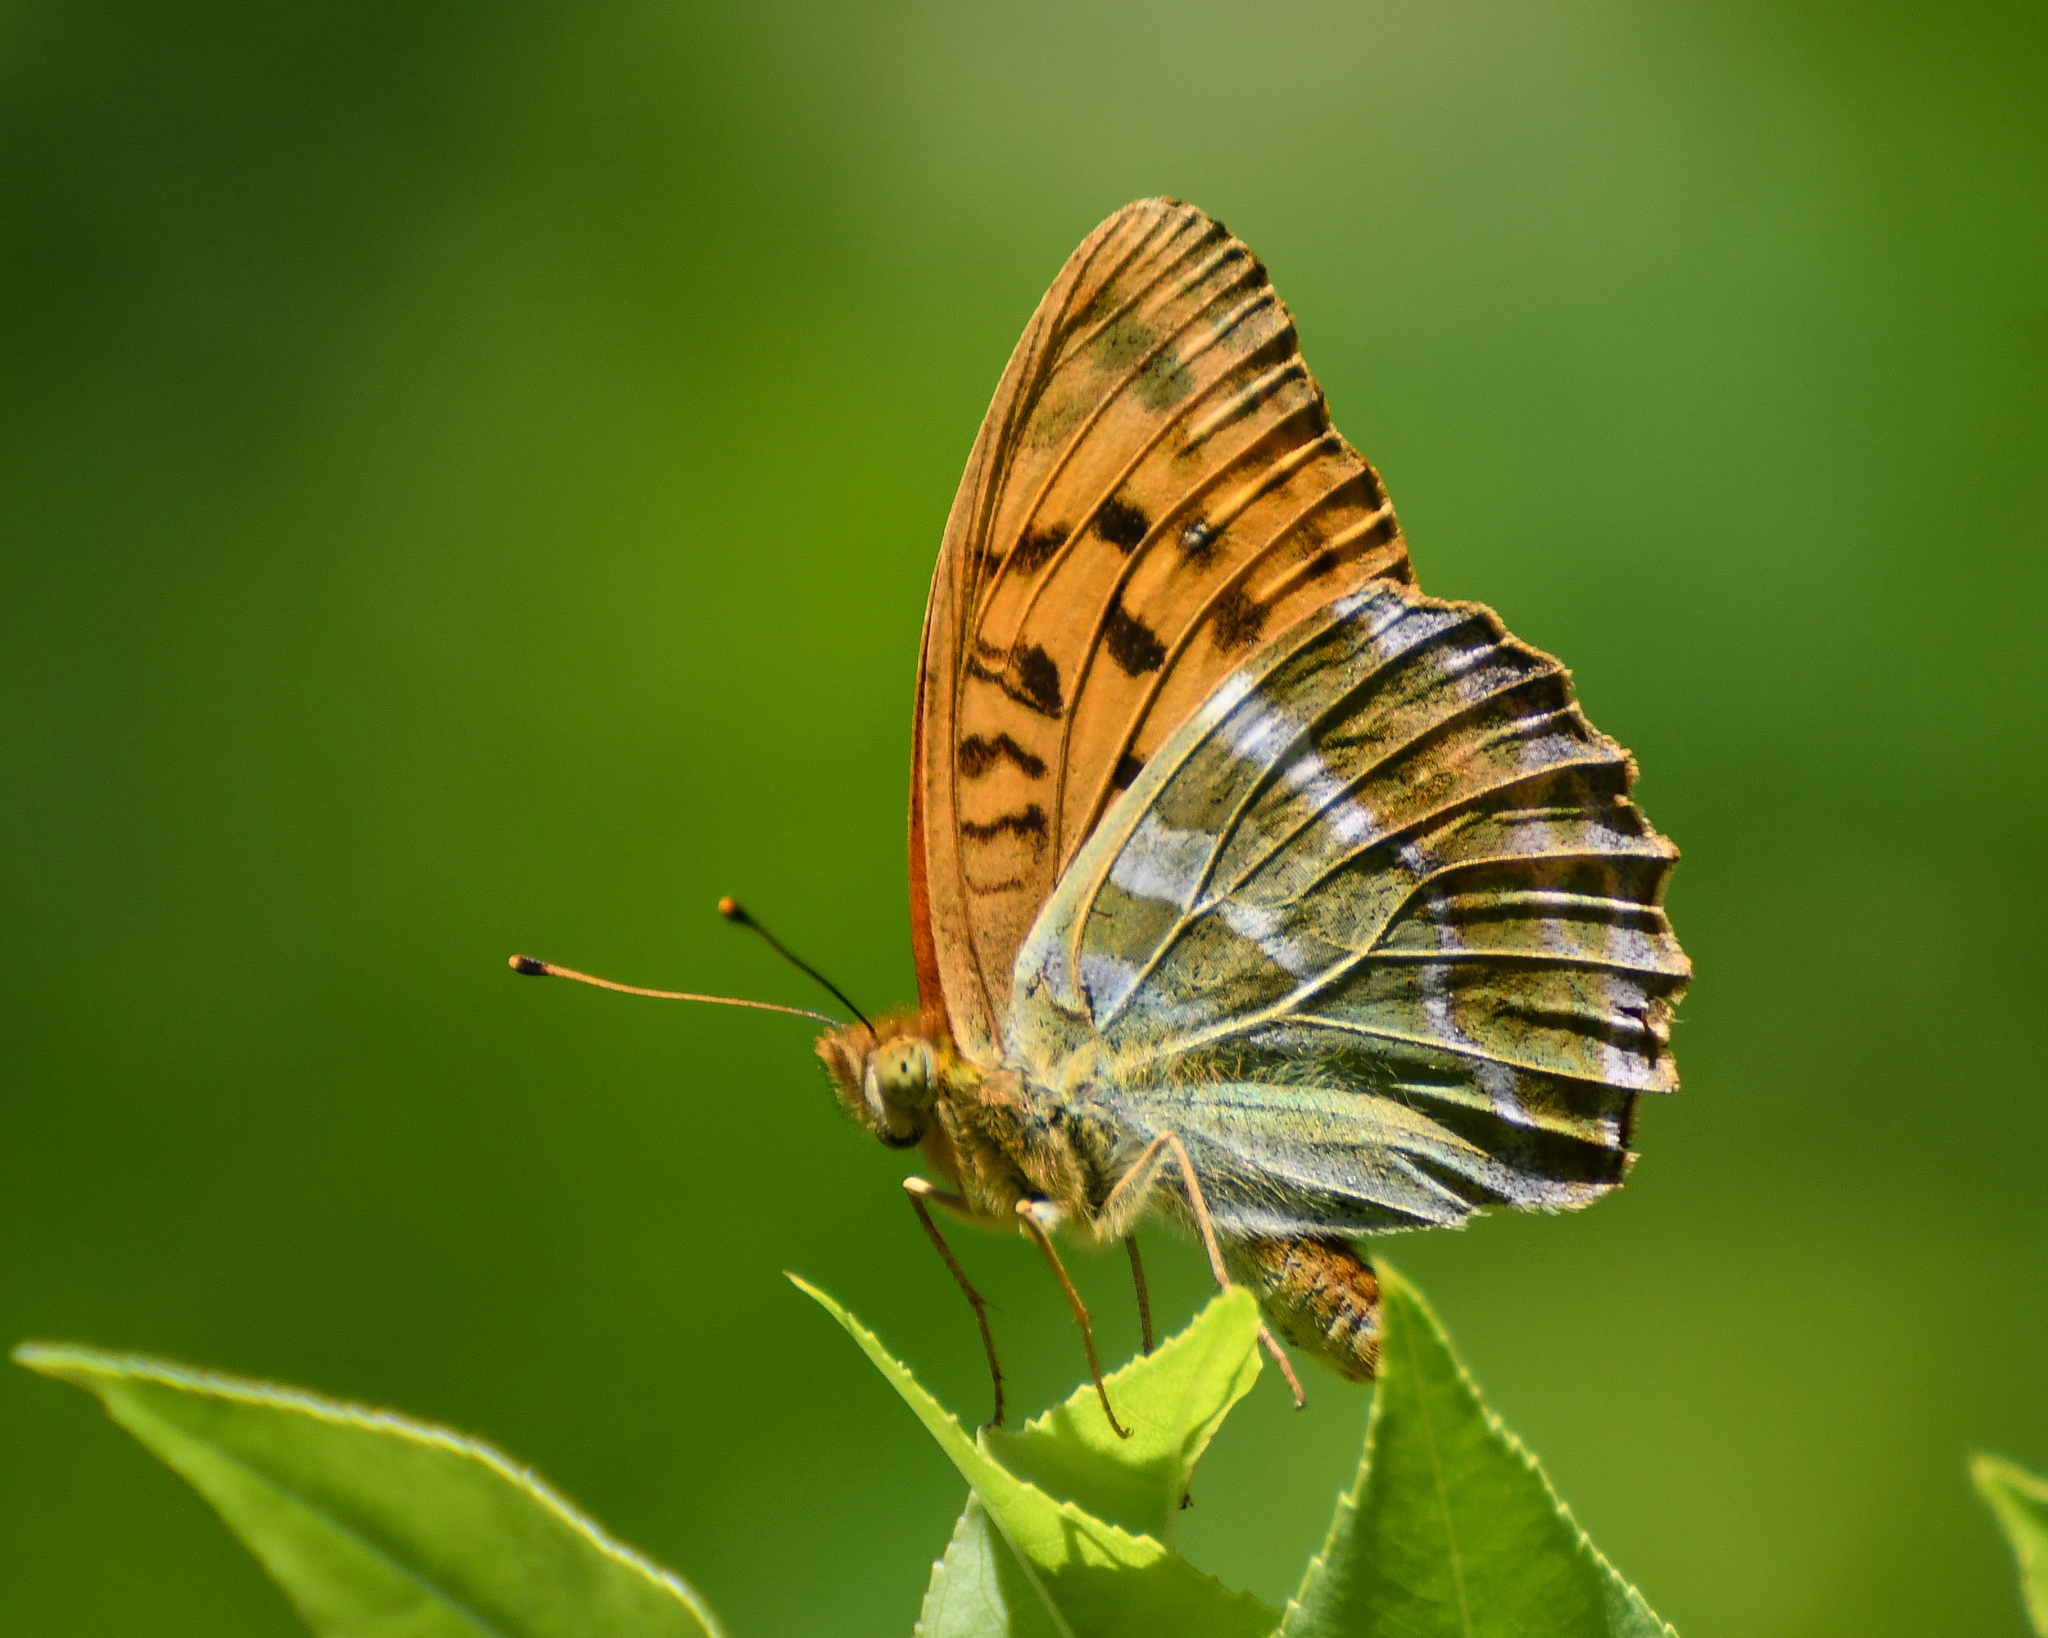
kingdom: Animalia
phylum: Arthropoda
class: Insecta
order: Lepidoptera
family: Nymphalidae
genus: Argynnis
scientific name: Argynnis paphia
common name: Silver-washed fritillary
